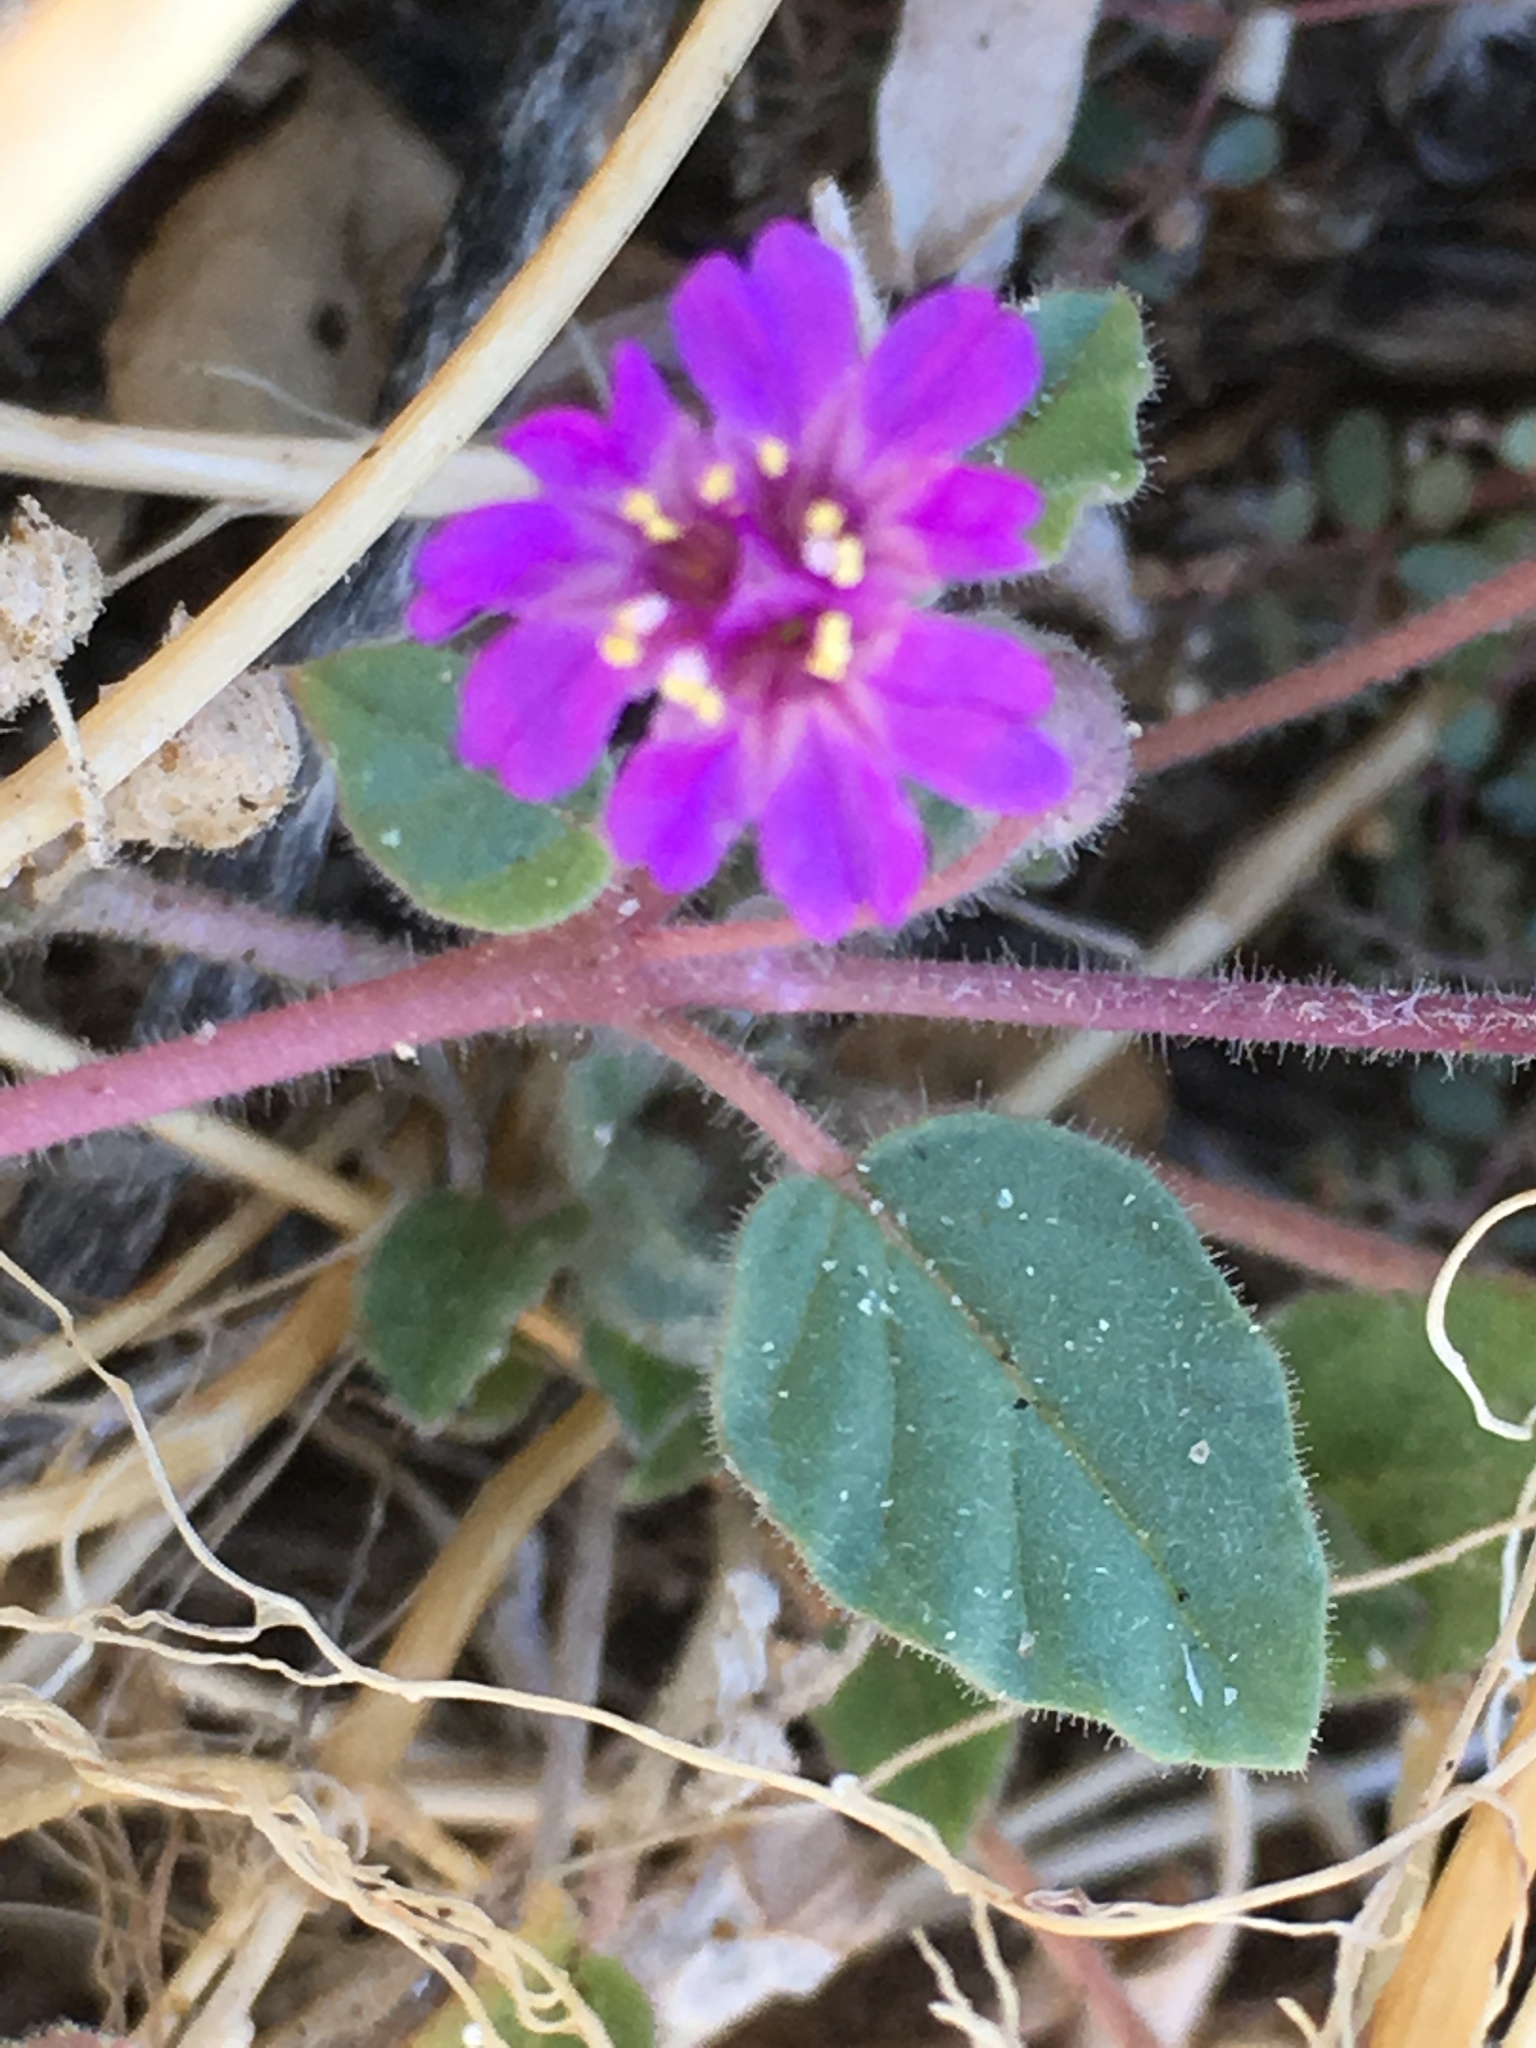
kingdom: Plantae
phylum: Tracheophyta
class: Magnoliopsida
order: Caryophyllales
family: Nyctaginaceae
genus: Allionia
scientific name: Allionia incarnata
